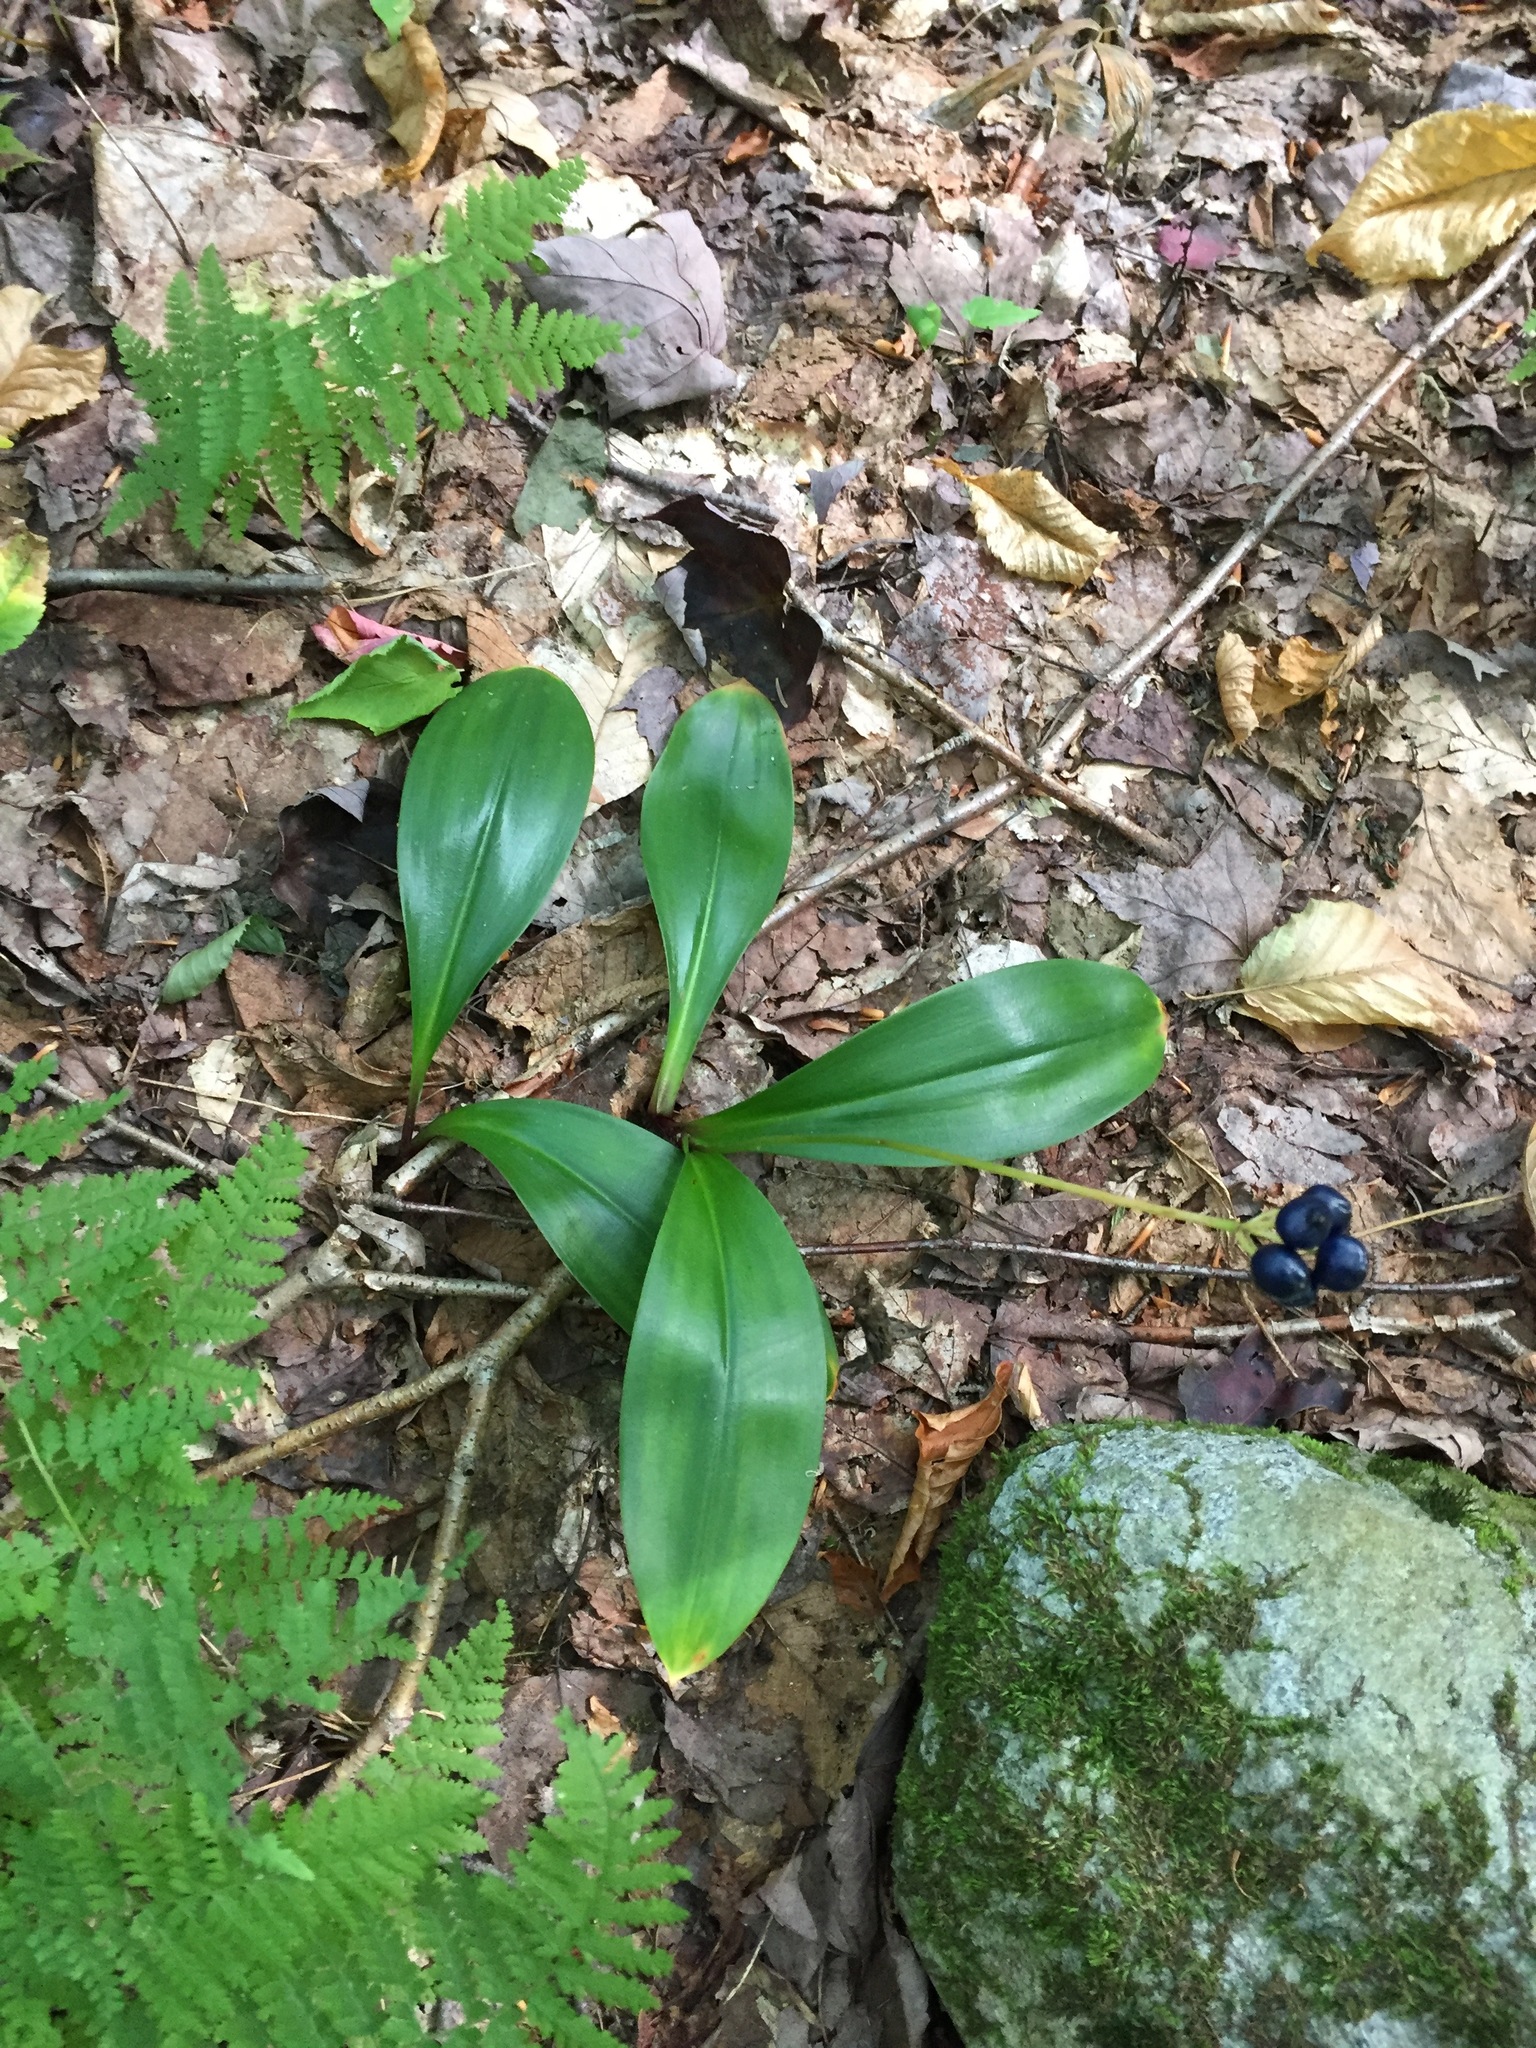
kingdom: Plantae
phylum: Tracheophyta
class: Liliopsida
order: Liliales
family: Liliaceae
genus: Clintonia
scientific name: Clintonia borealis
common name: Yellow clintonia
